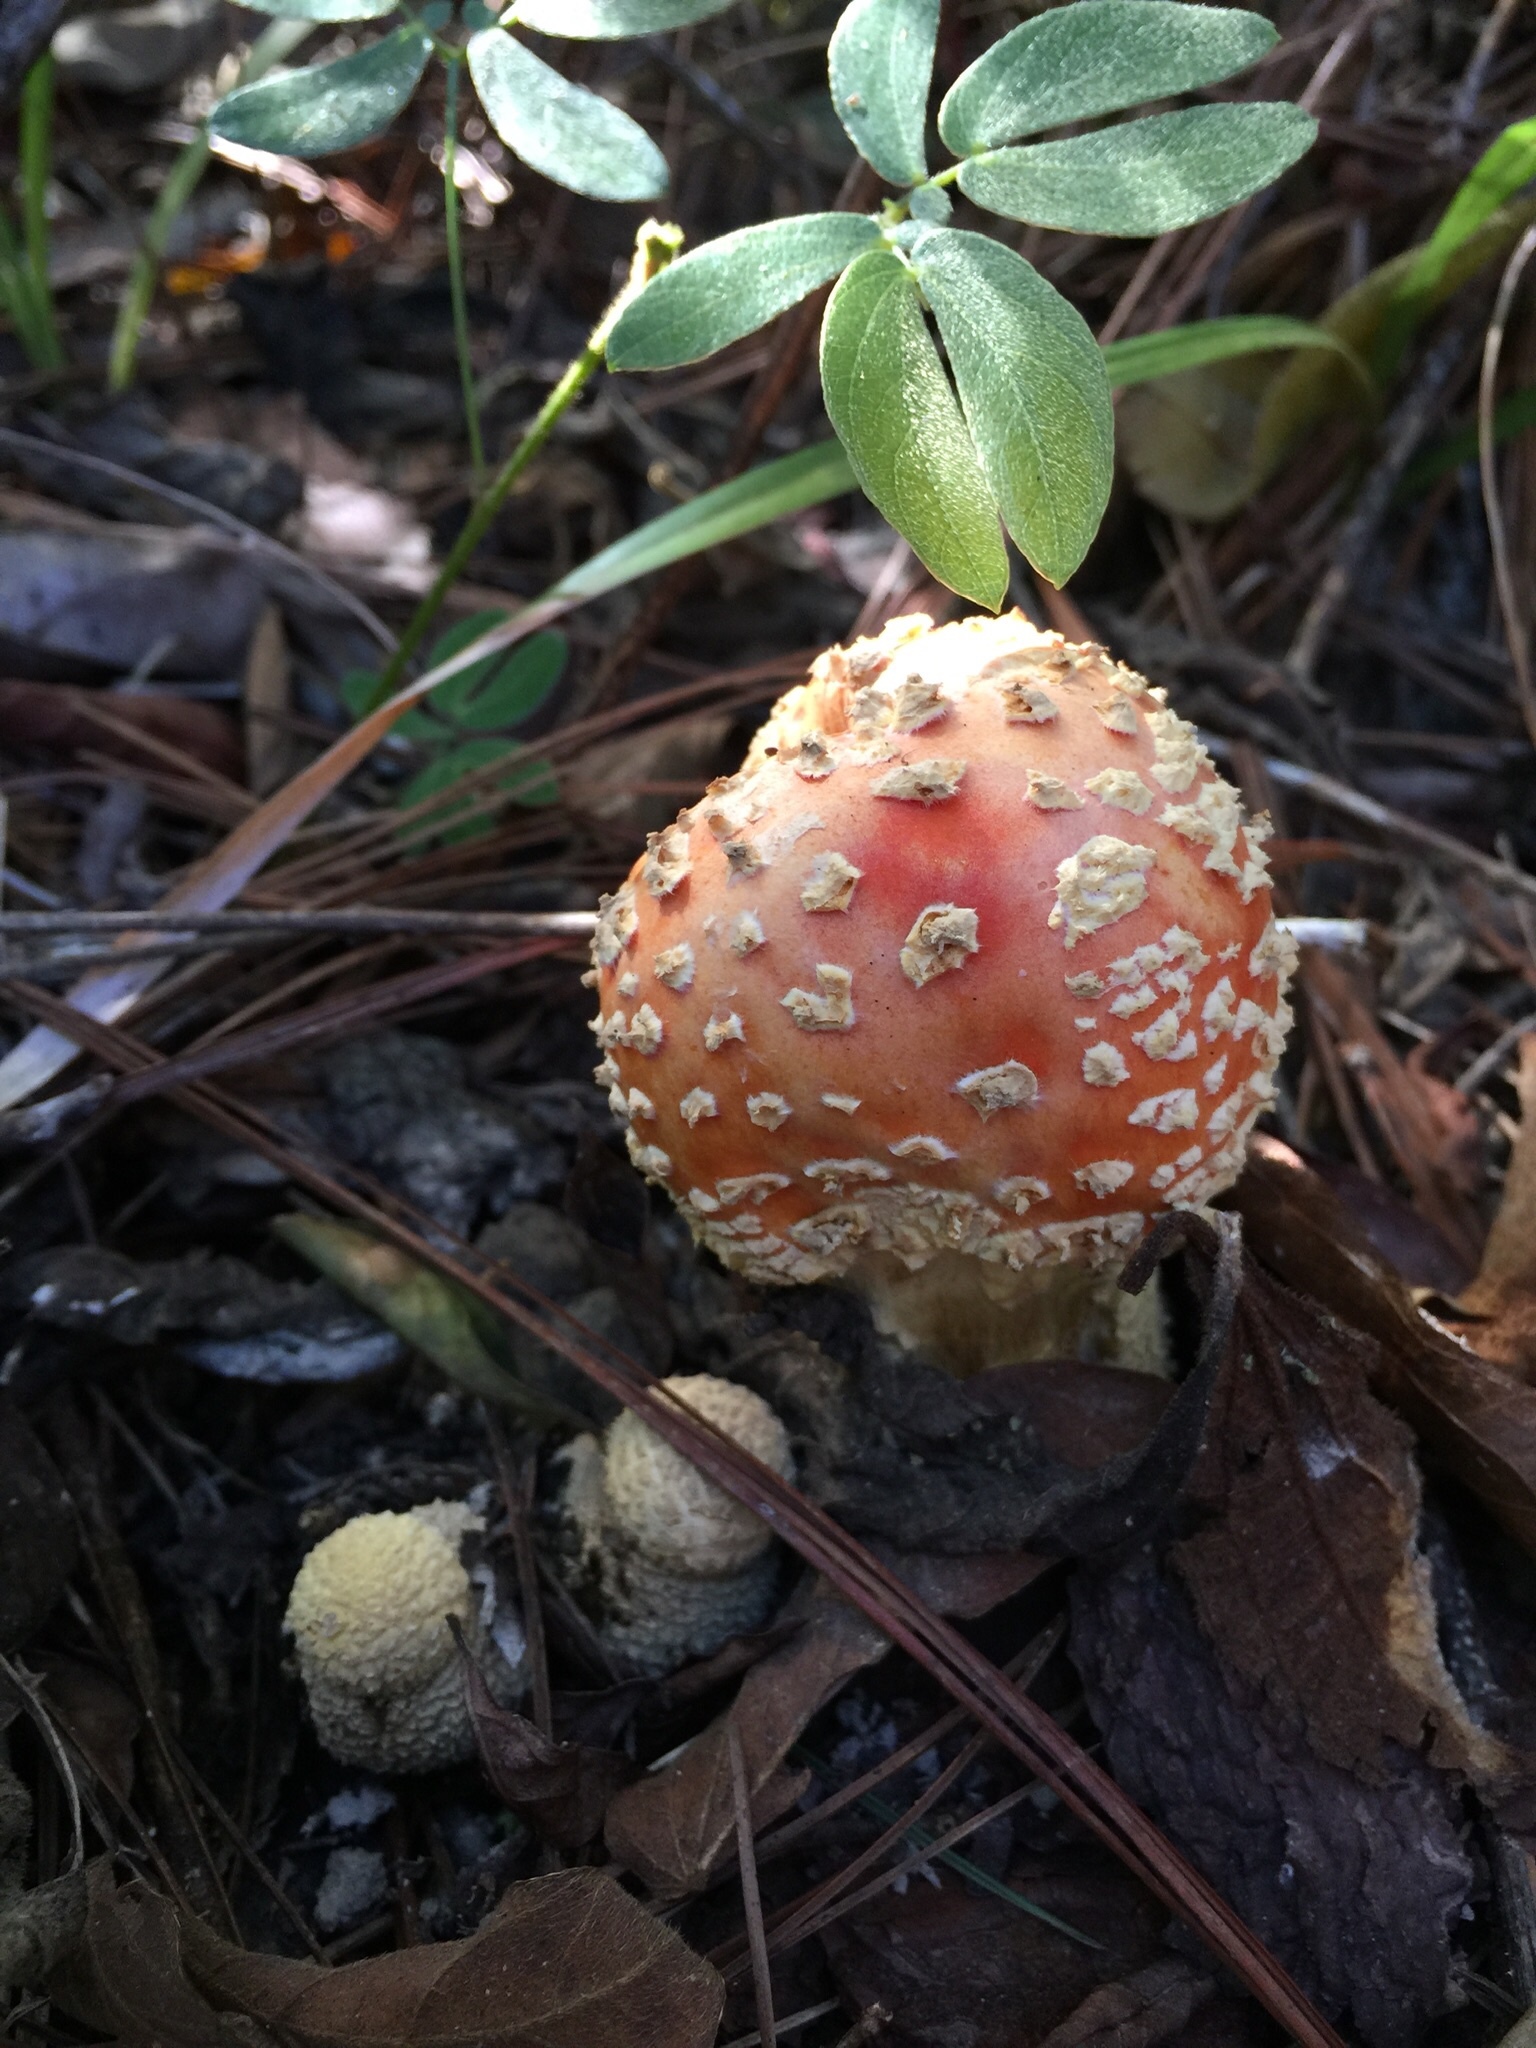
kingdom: Fungi
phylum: Basidiomycota
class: Agaricomycetes
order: Agaricales
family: Amanitaceae
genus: Amanita
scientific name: Amanita muscaria
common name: Fly agaric
